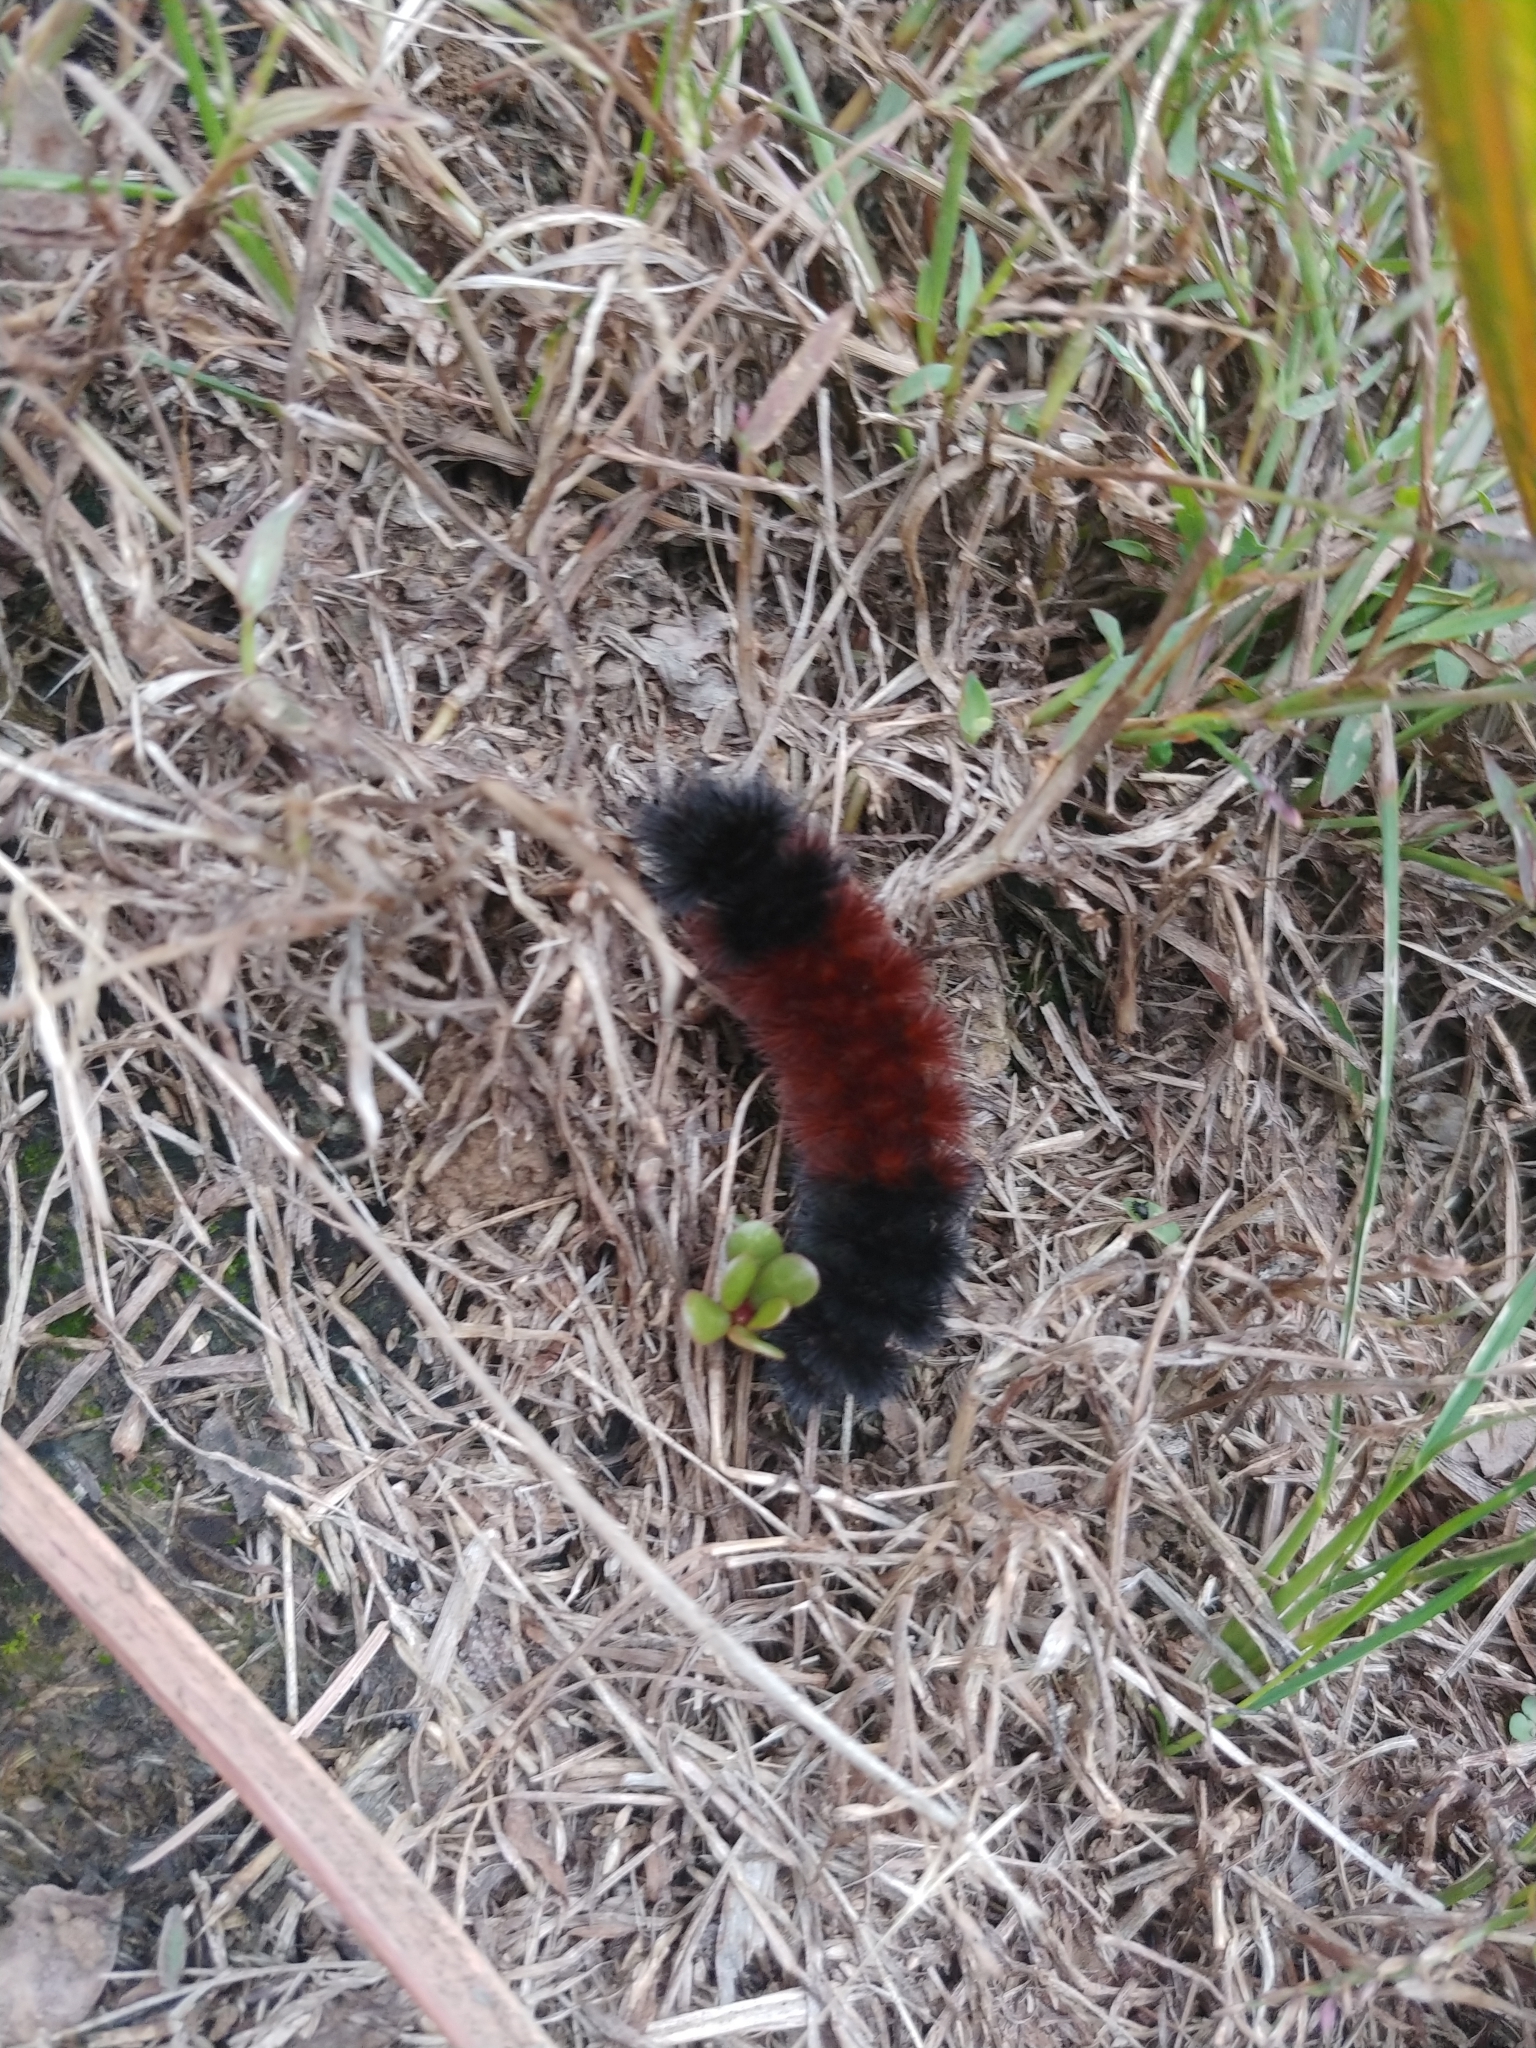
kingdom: Animalia
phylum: Arthropoda
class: Insecta
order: Lepidoptera
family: Erebidae
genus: Pyrrharctia
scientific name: Pyrrharctia isabella
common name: Isabella tiger moth
